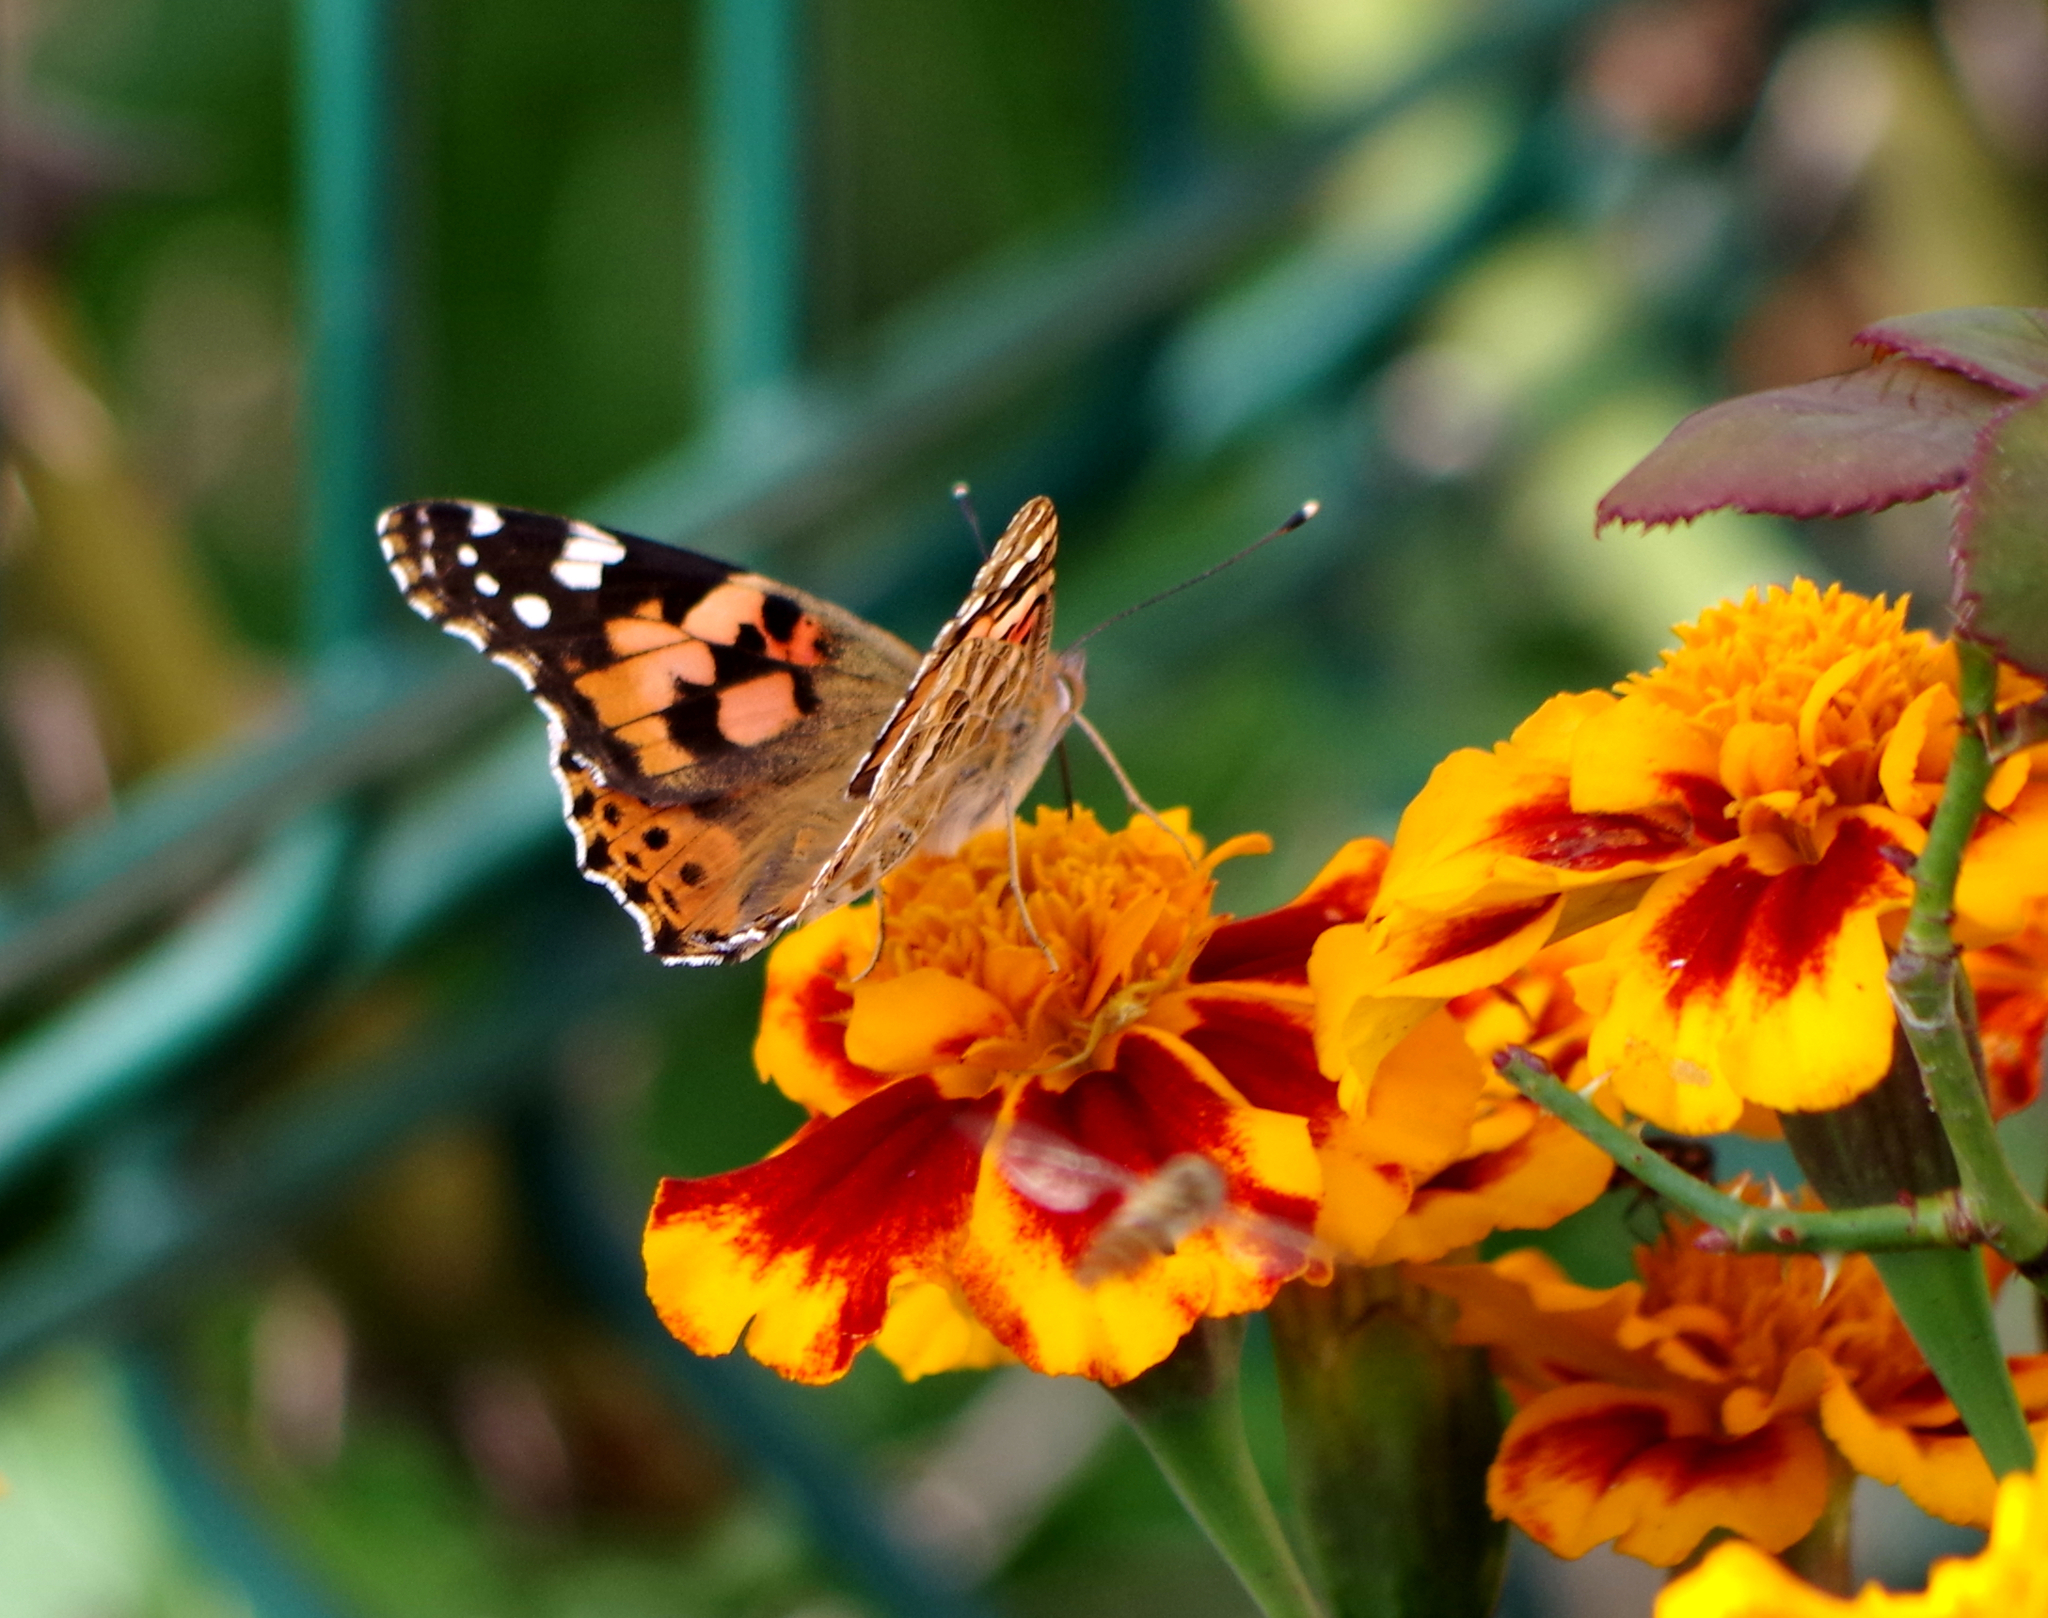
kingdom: Animalia
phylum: Arthropoda
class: Insecta
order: Lepidoptera
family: Nymphalidae
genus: Vanessa
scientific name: Vanessa cardui
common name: Painted lady
